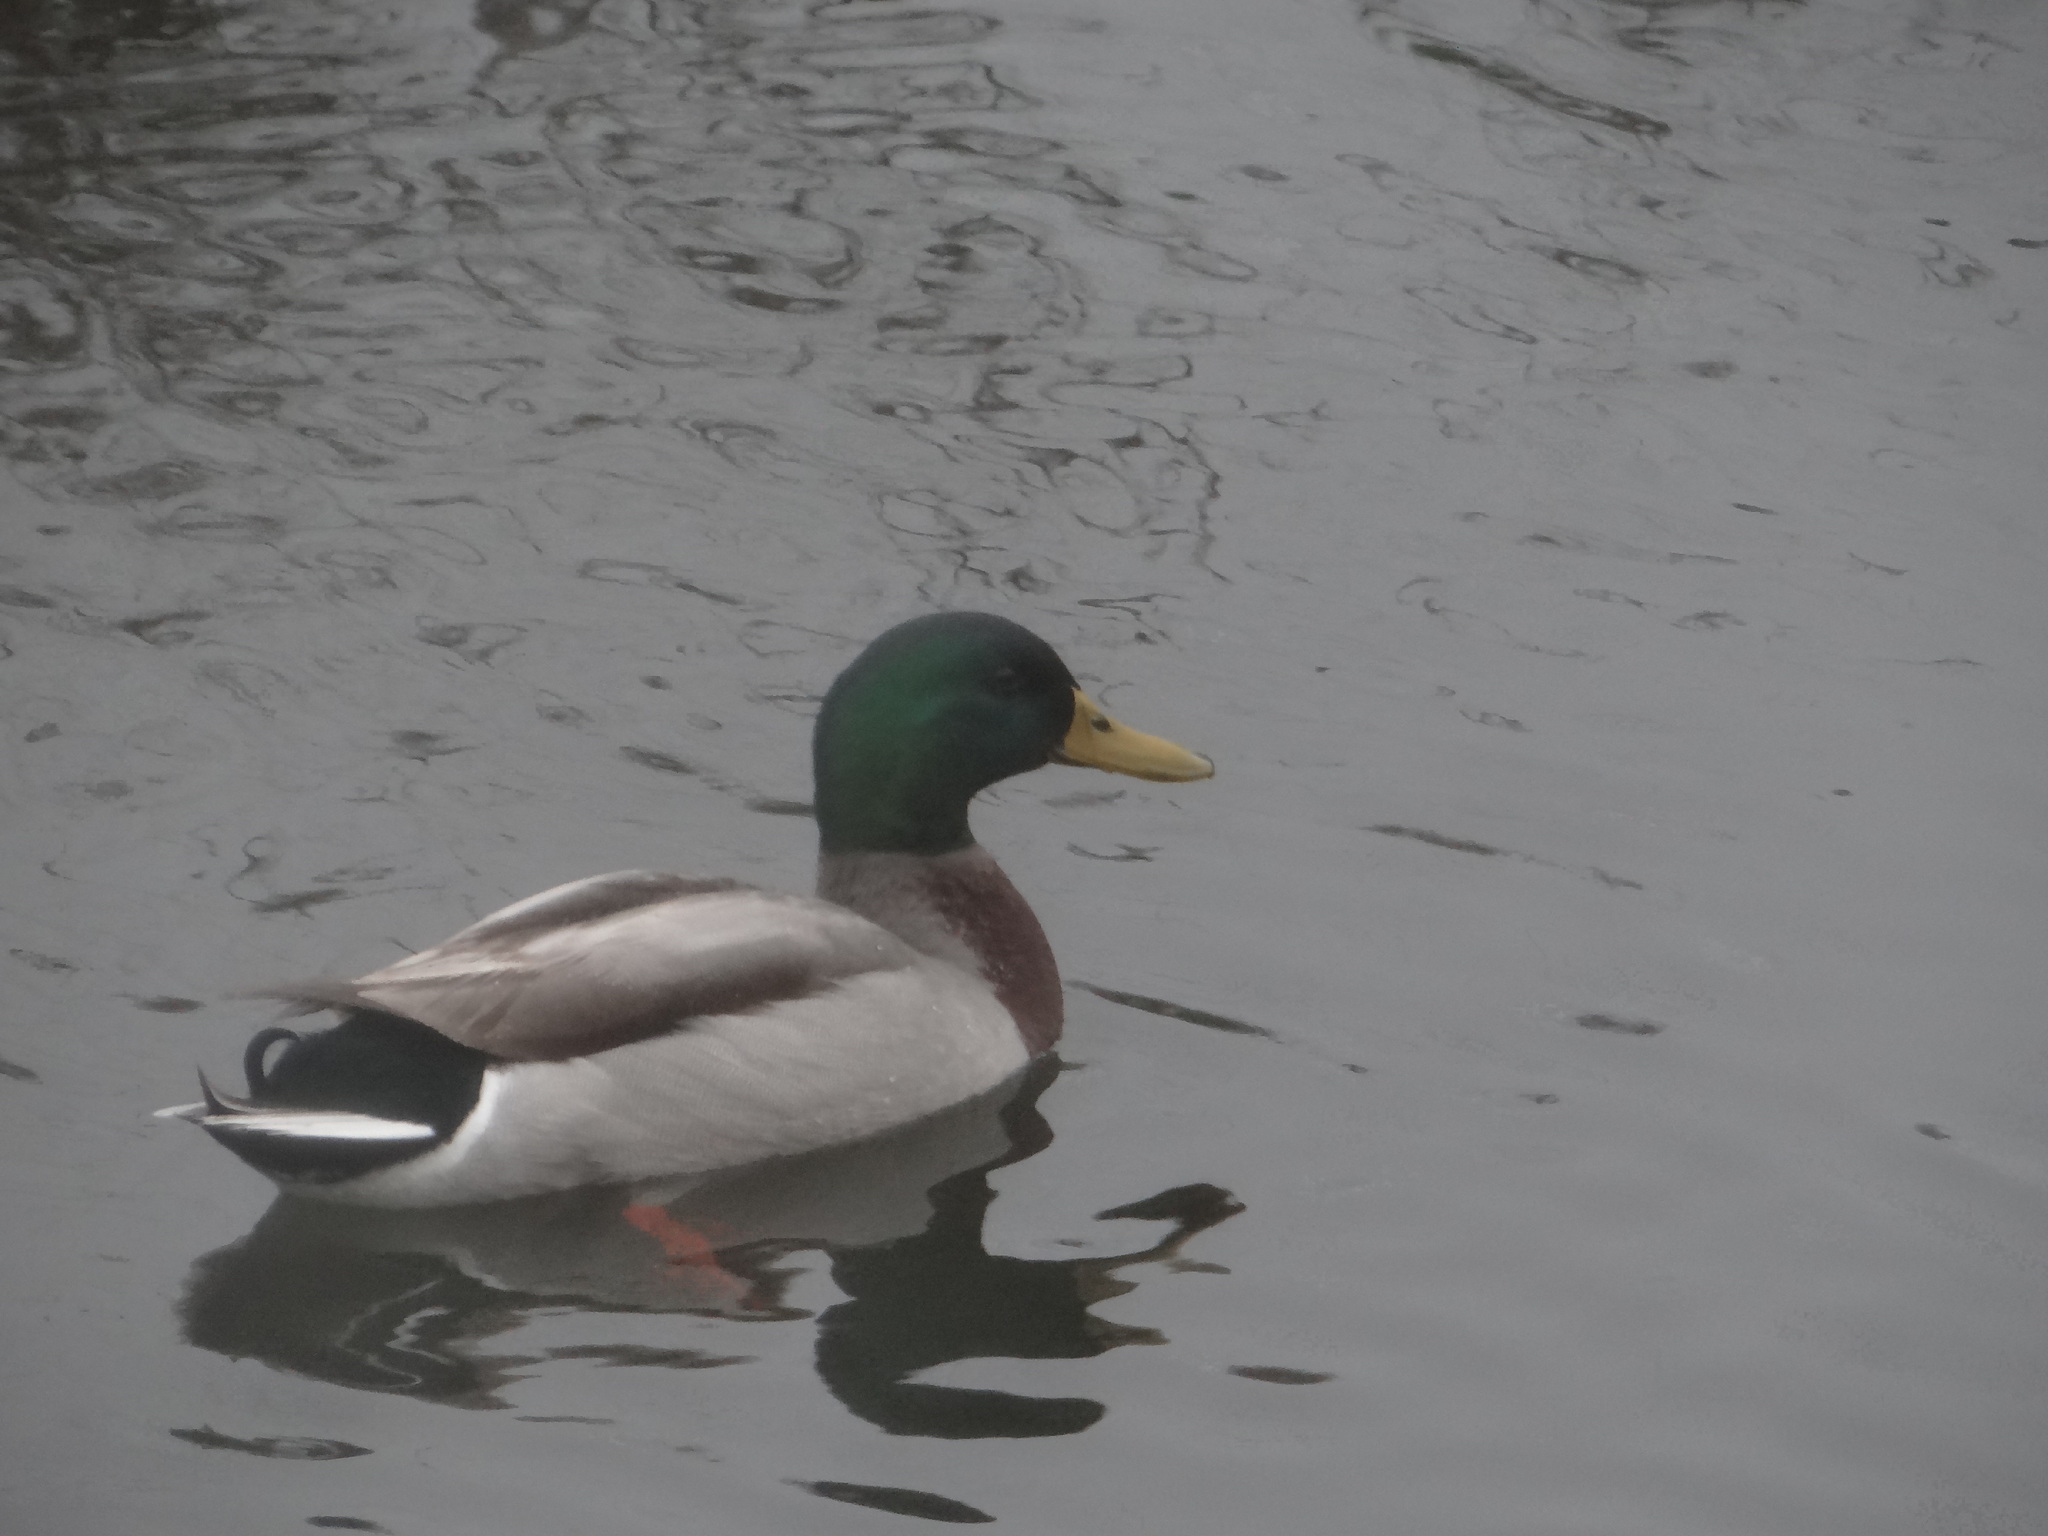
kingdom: Animalia
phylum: Chordata
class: Aves
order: Anseriformes
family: Anatidae
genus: Anas
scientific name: Anas platyrhynchos
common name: Mallard
